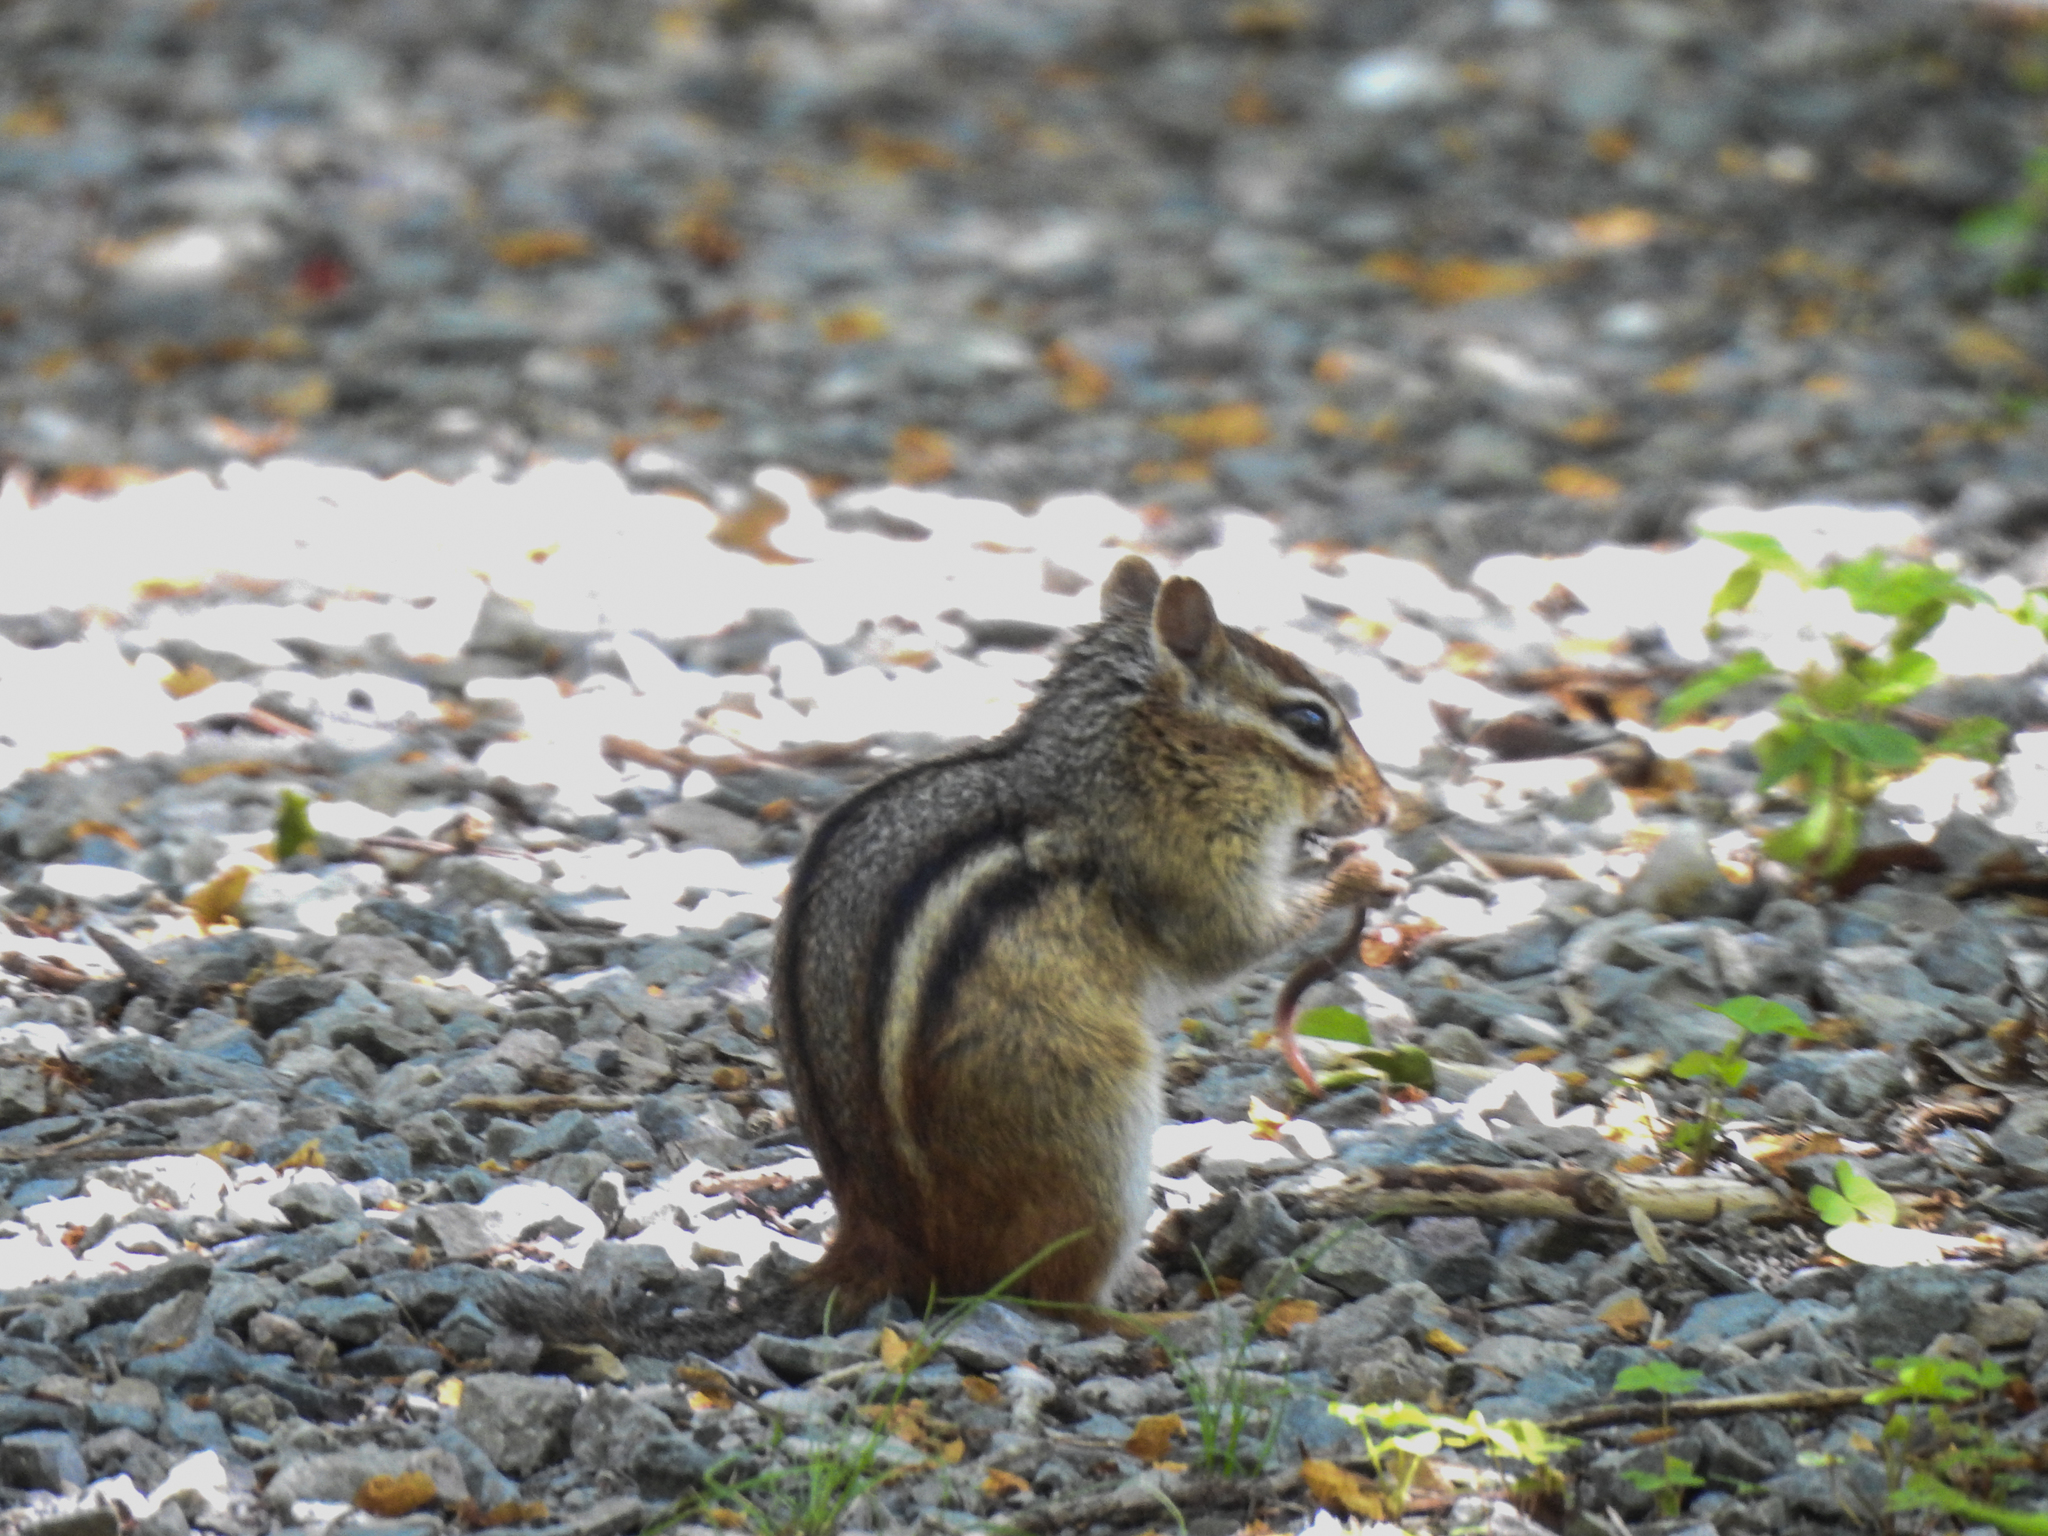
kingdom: Animalia
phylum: Chordata
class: Mammalia
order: Rodentia
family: Sciuridae
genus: Tamias
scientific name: Tamias striatus
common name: Eastern chipmunk
